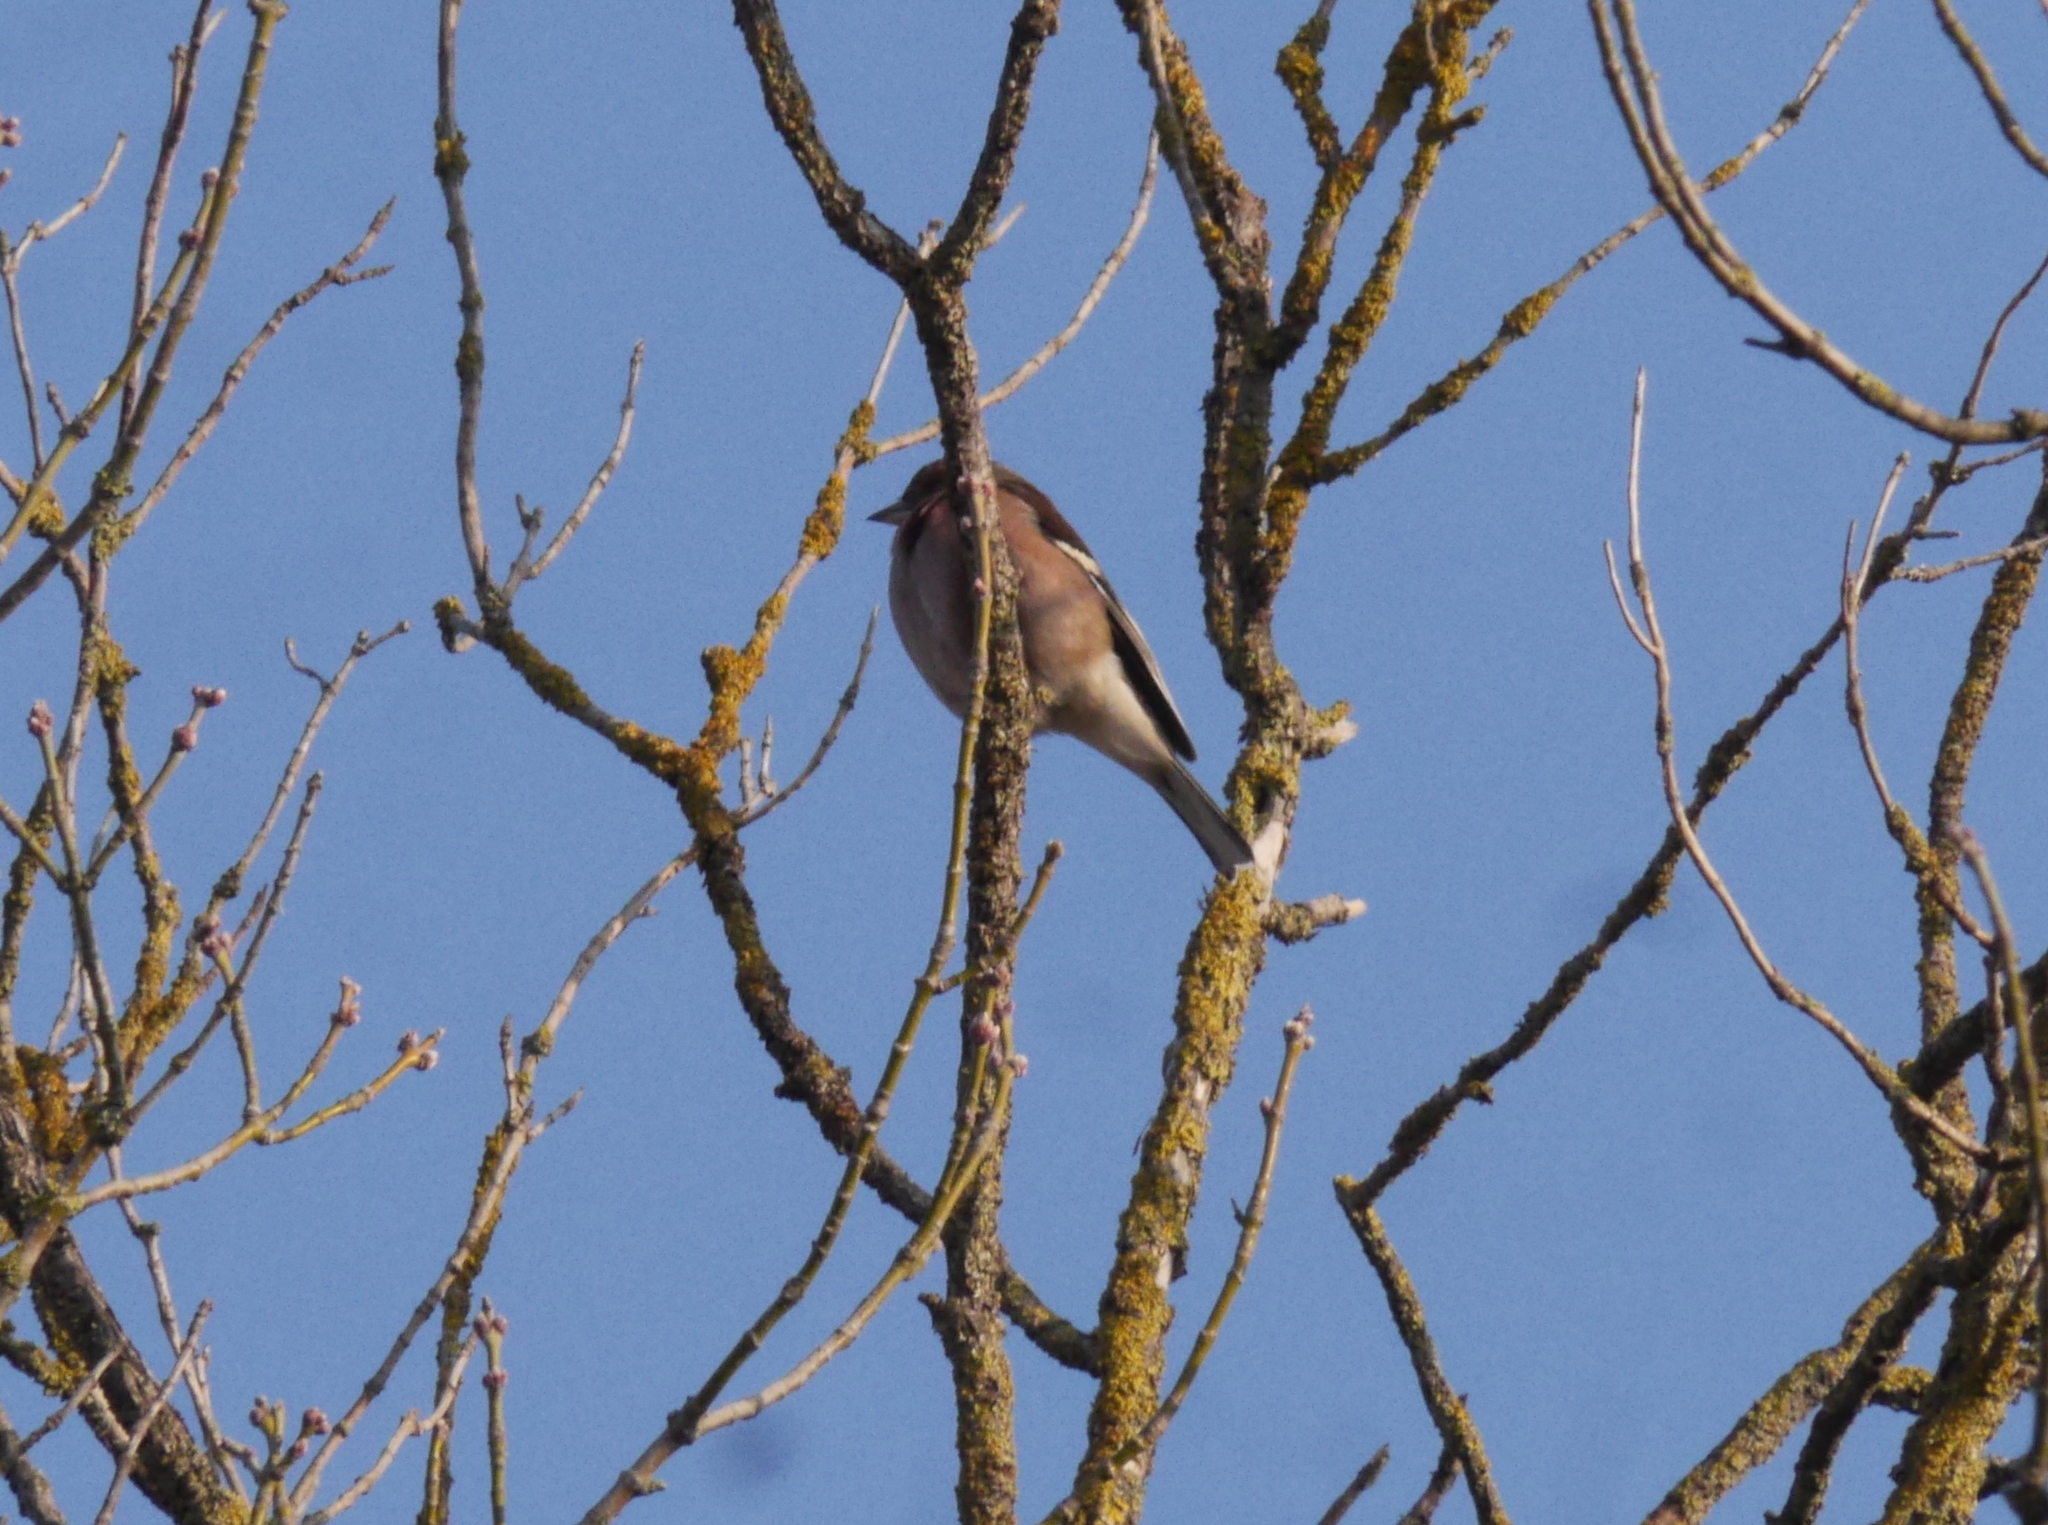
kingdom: Animalia
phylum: Chordata
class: Aves
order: Passeriformes
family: Fringillidae
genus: Fringilla
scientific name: Fringilla coelebs
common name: Common chaffinch
